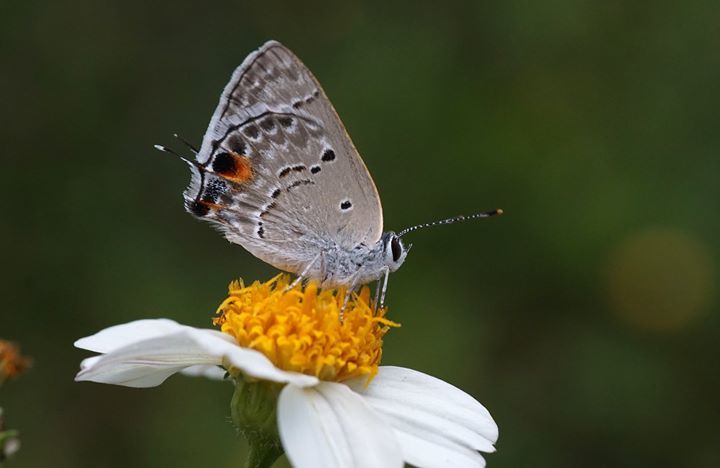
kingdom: Animalia
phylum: Arthropoda
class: Insecta
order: Lepidoptera
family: Lycaenidae
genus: Callicista
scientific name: Callicista columella
